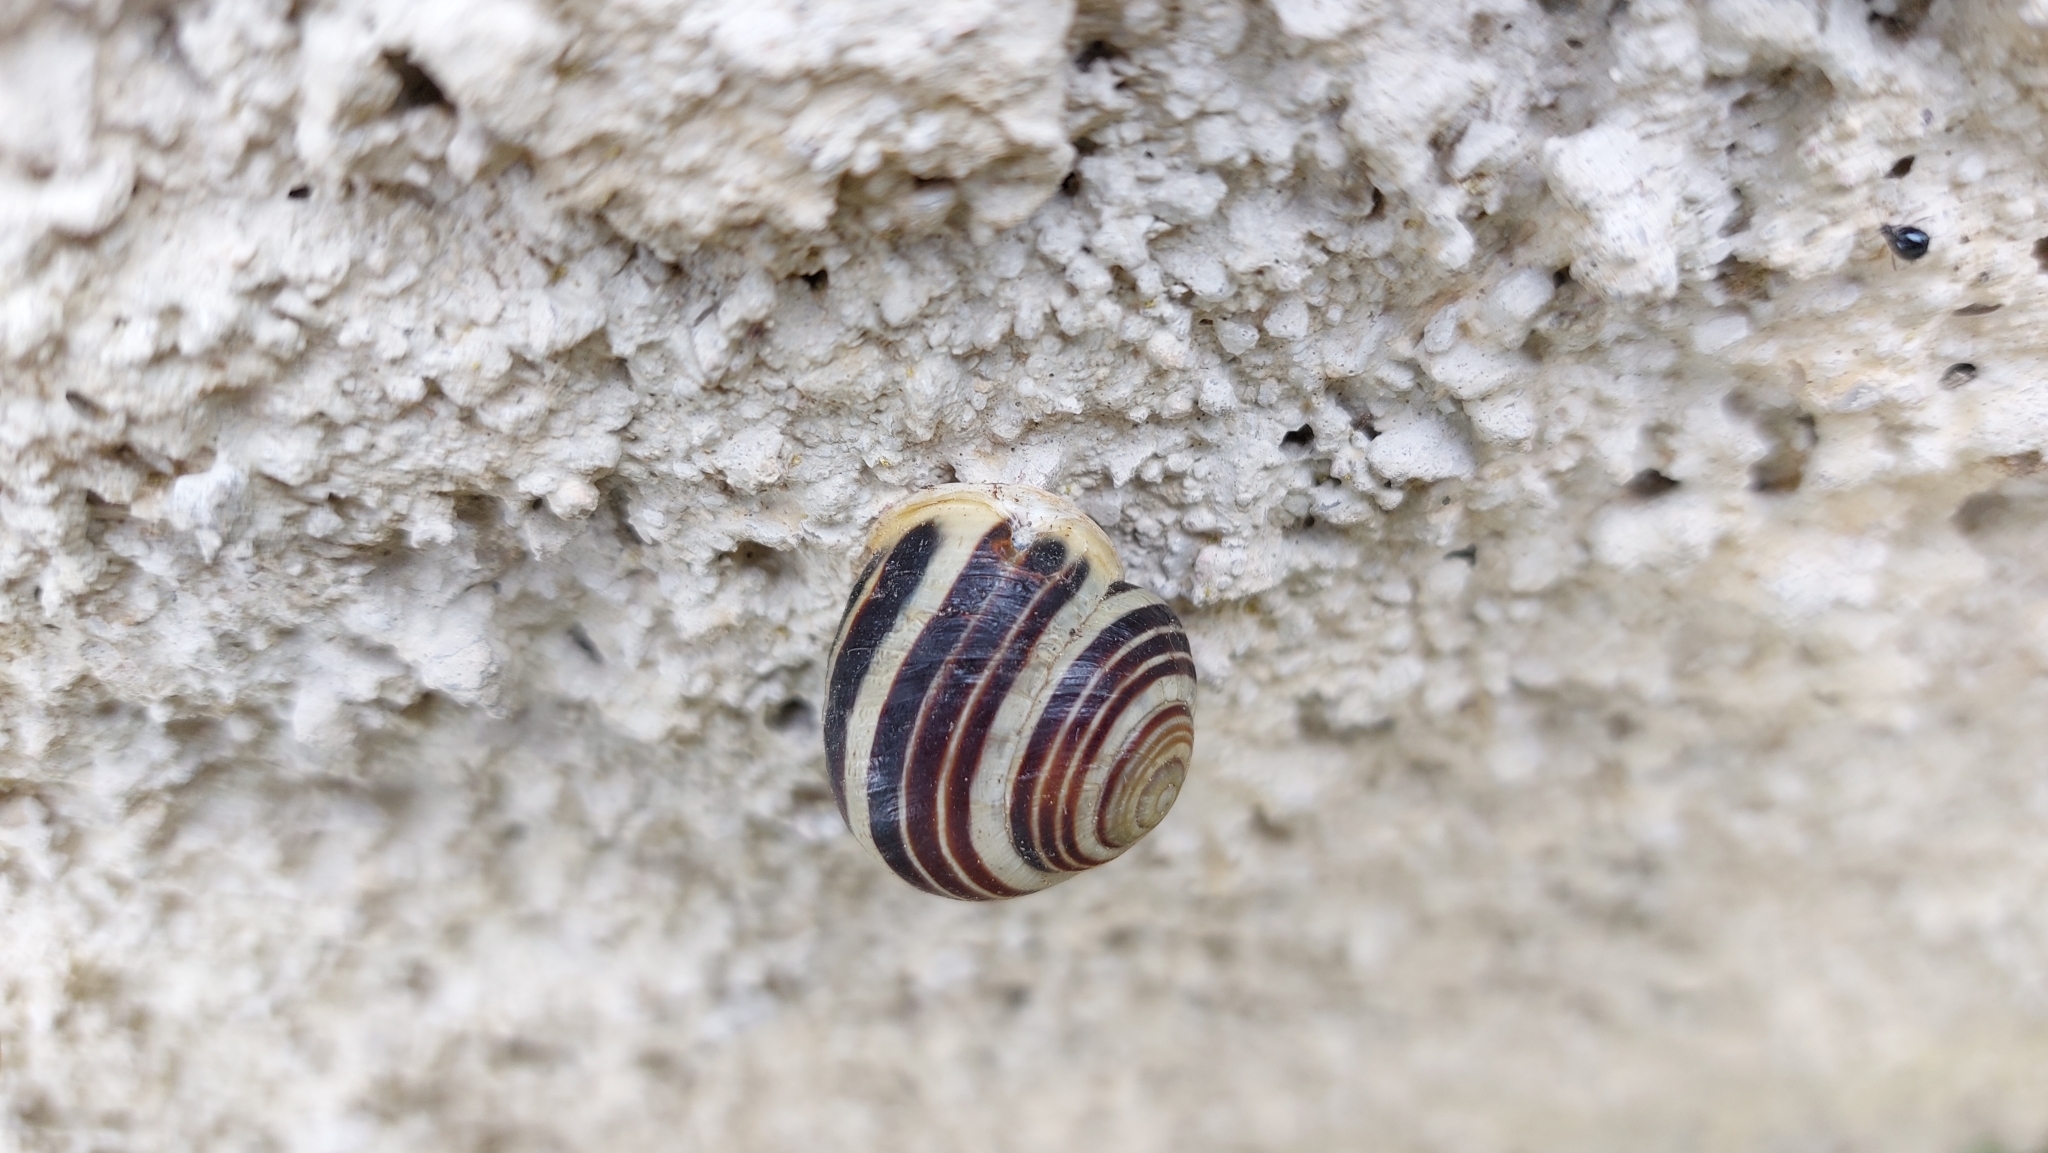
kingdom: Animalia
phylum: Mollusca
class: Gastropoda
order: Stylommatophora
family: Helicidae
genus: Cepaea
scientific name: Cepaea hortensis
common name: White-lip gardensnail
